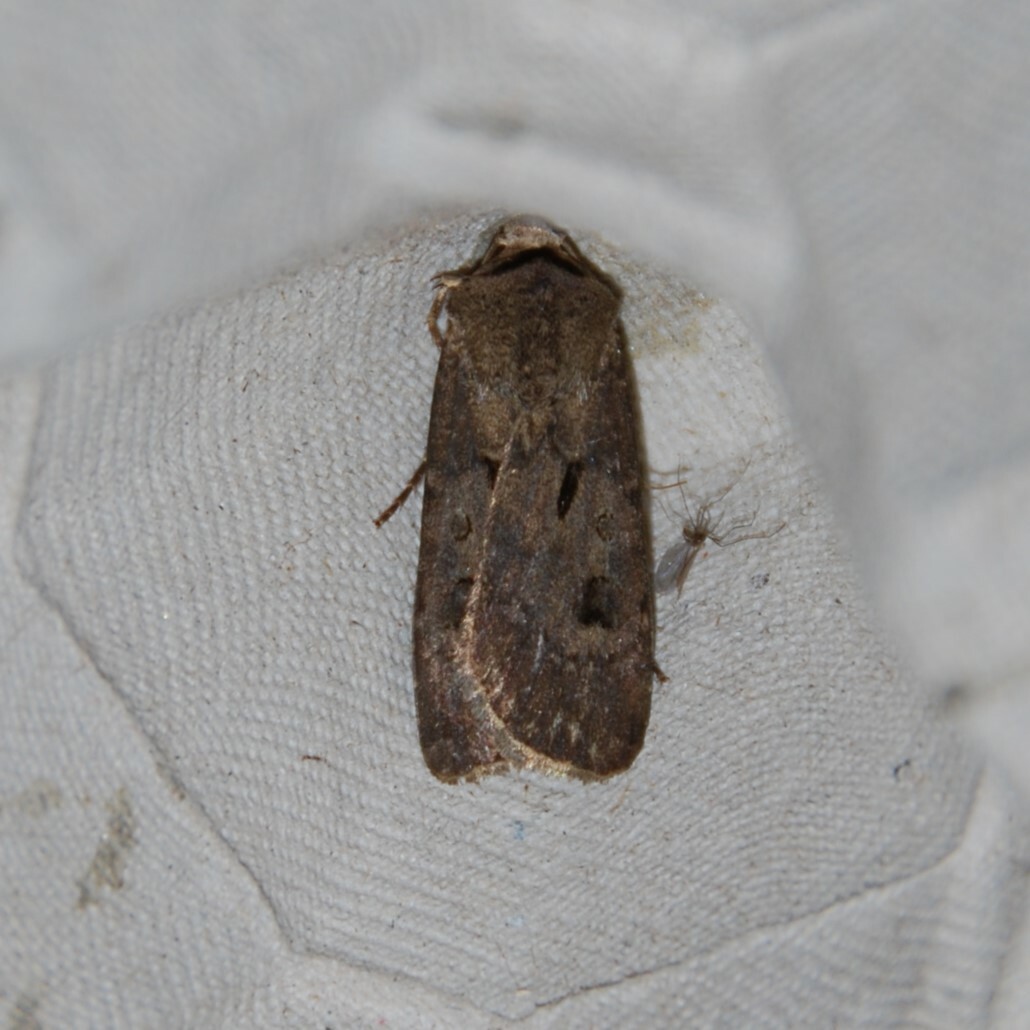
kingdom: Animalia
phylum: Arthropoda
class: Insecta
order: Lepidoptera
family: Noctuidae
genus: Agrotis
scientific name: Agrotis exclamationis
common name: Heart and dart
